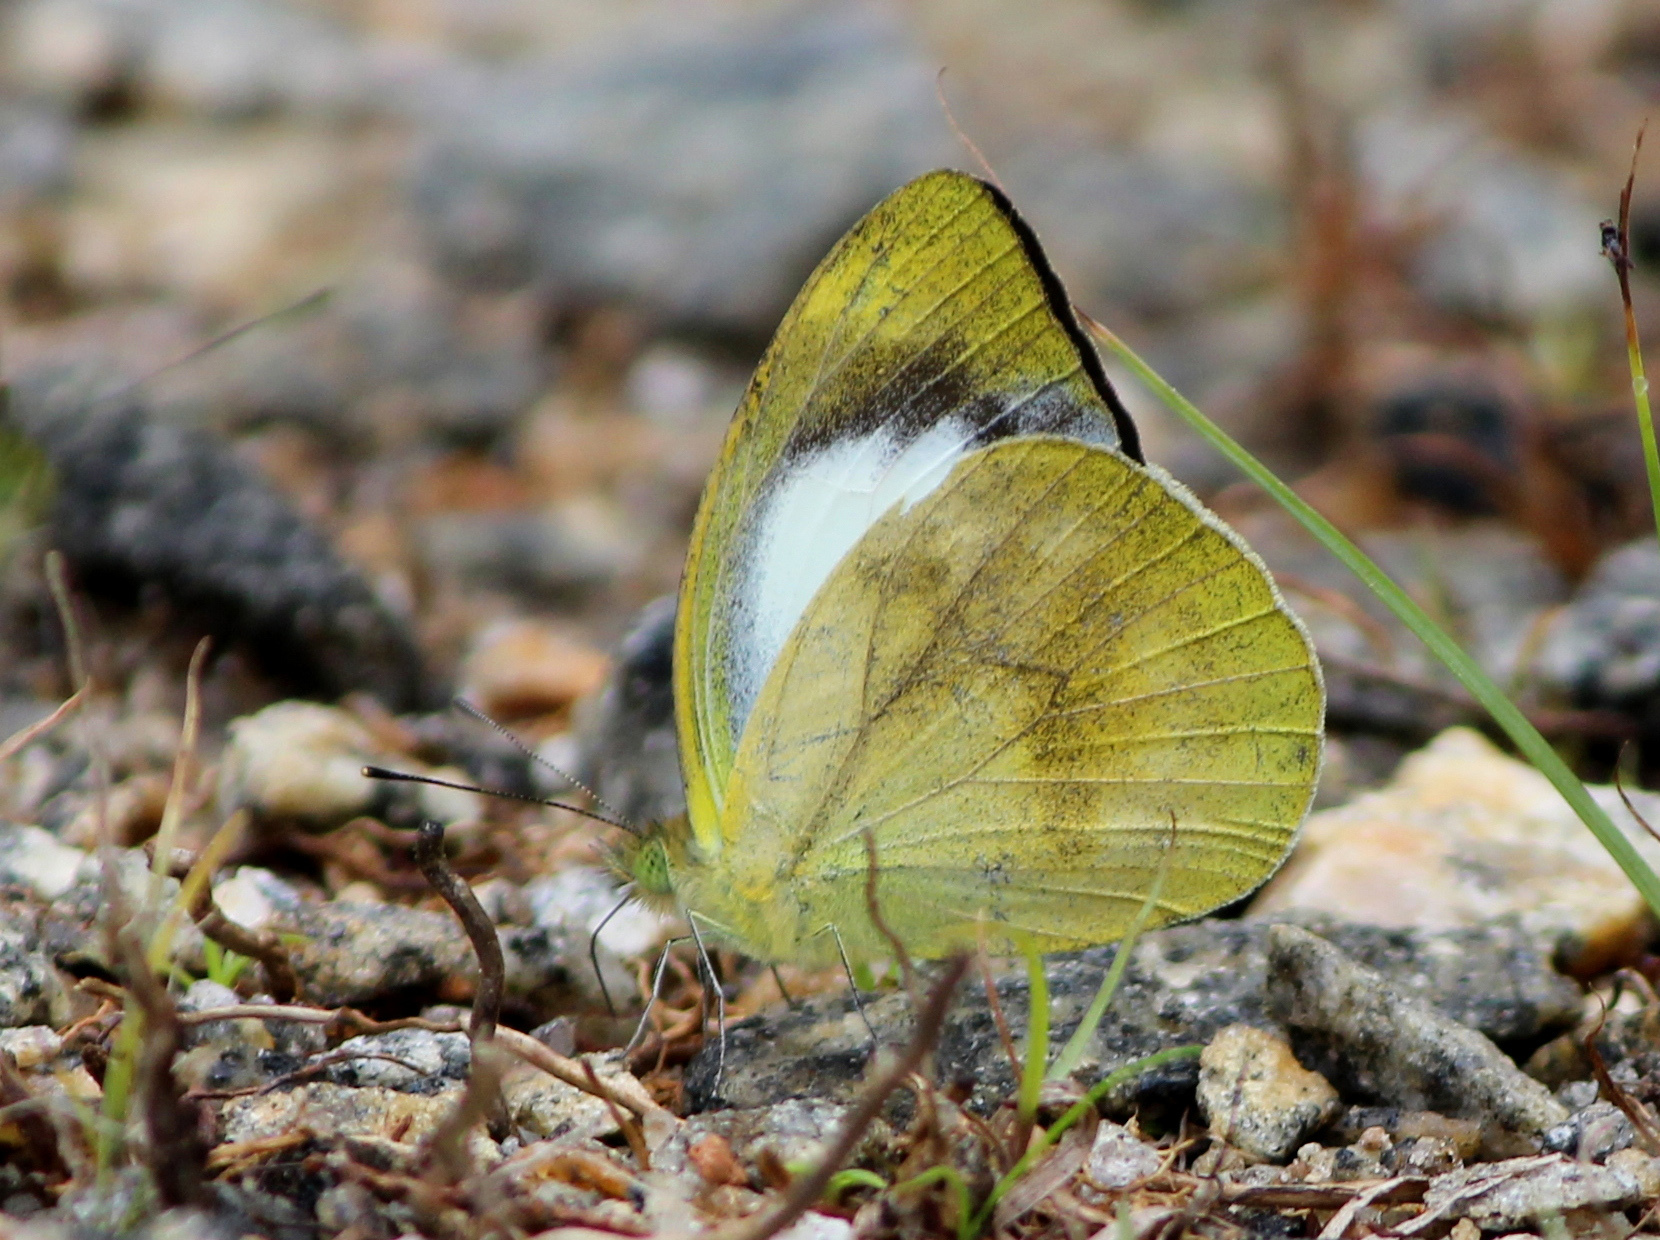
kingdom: Animalia
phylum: Arthropoda
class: Insecta
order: Lepidoptera
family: Pieridae
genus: Cepora
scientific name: Cepora nadina
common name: Lesser gull
